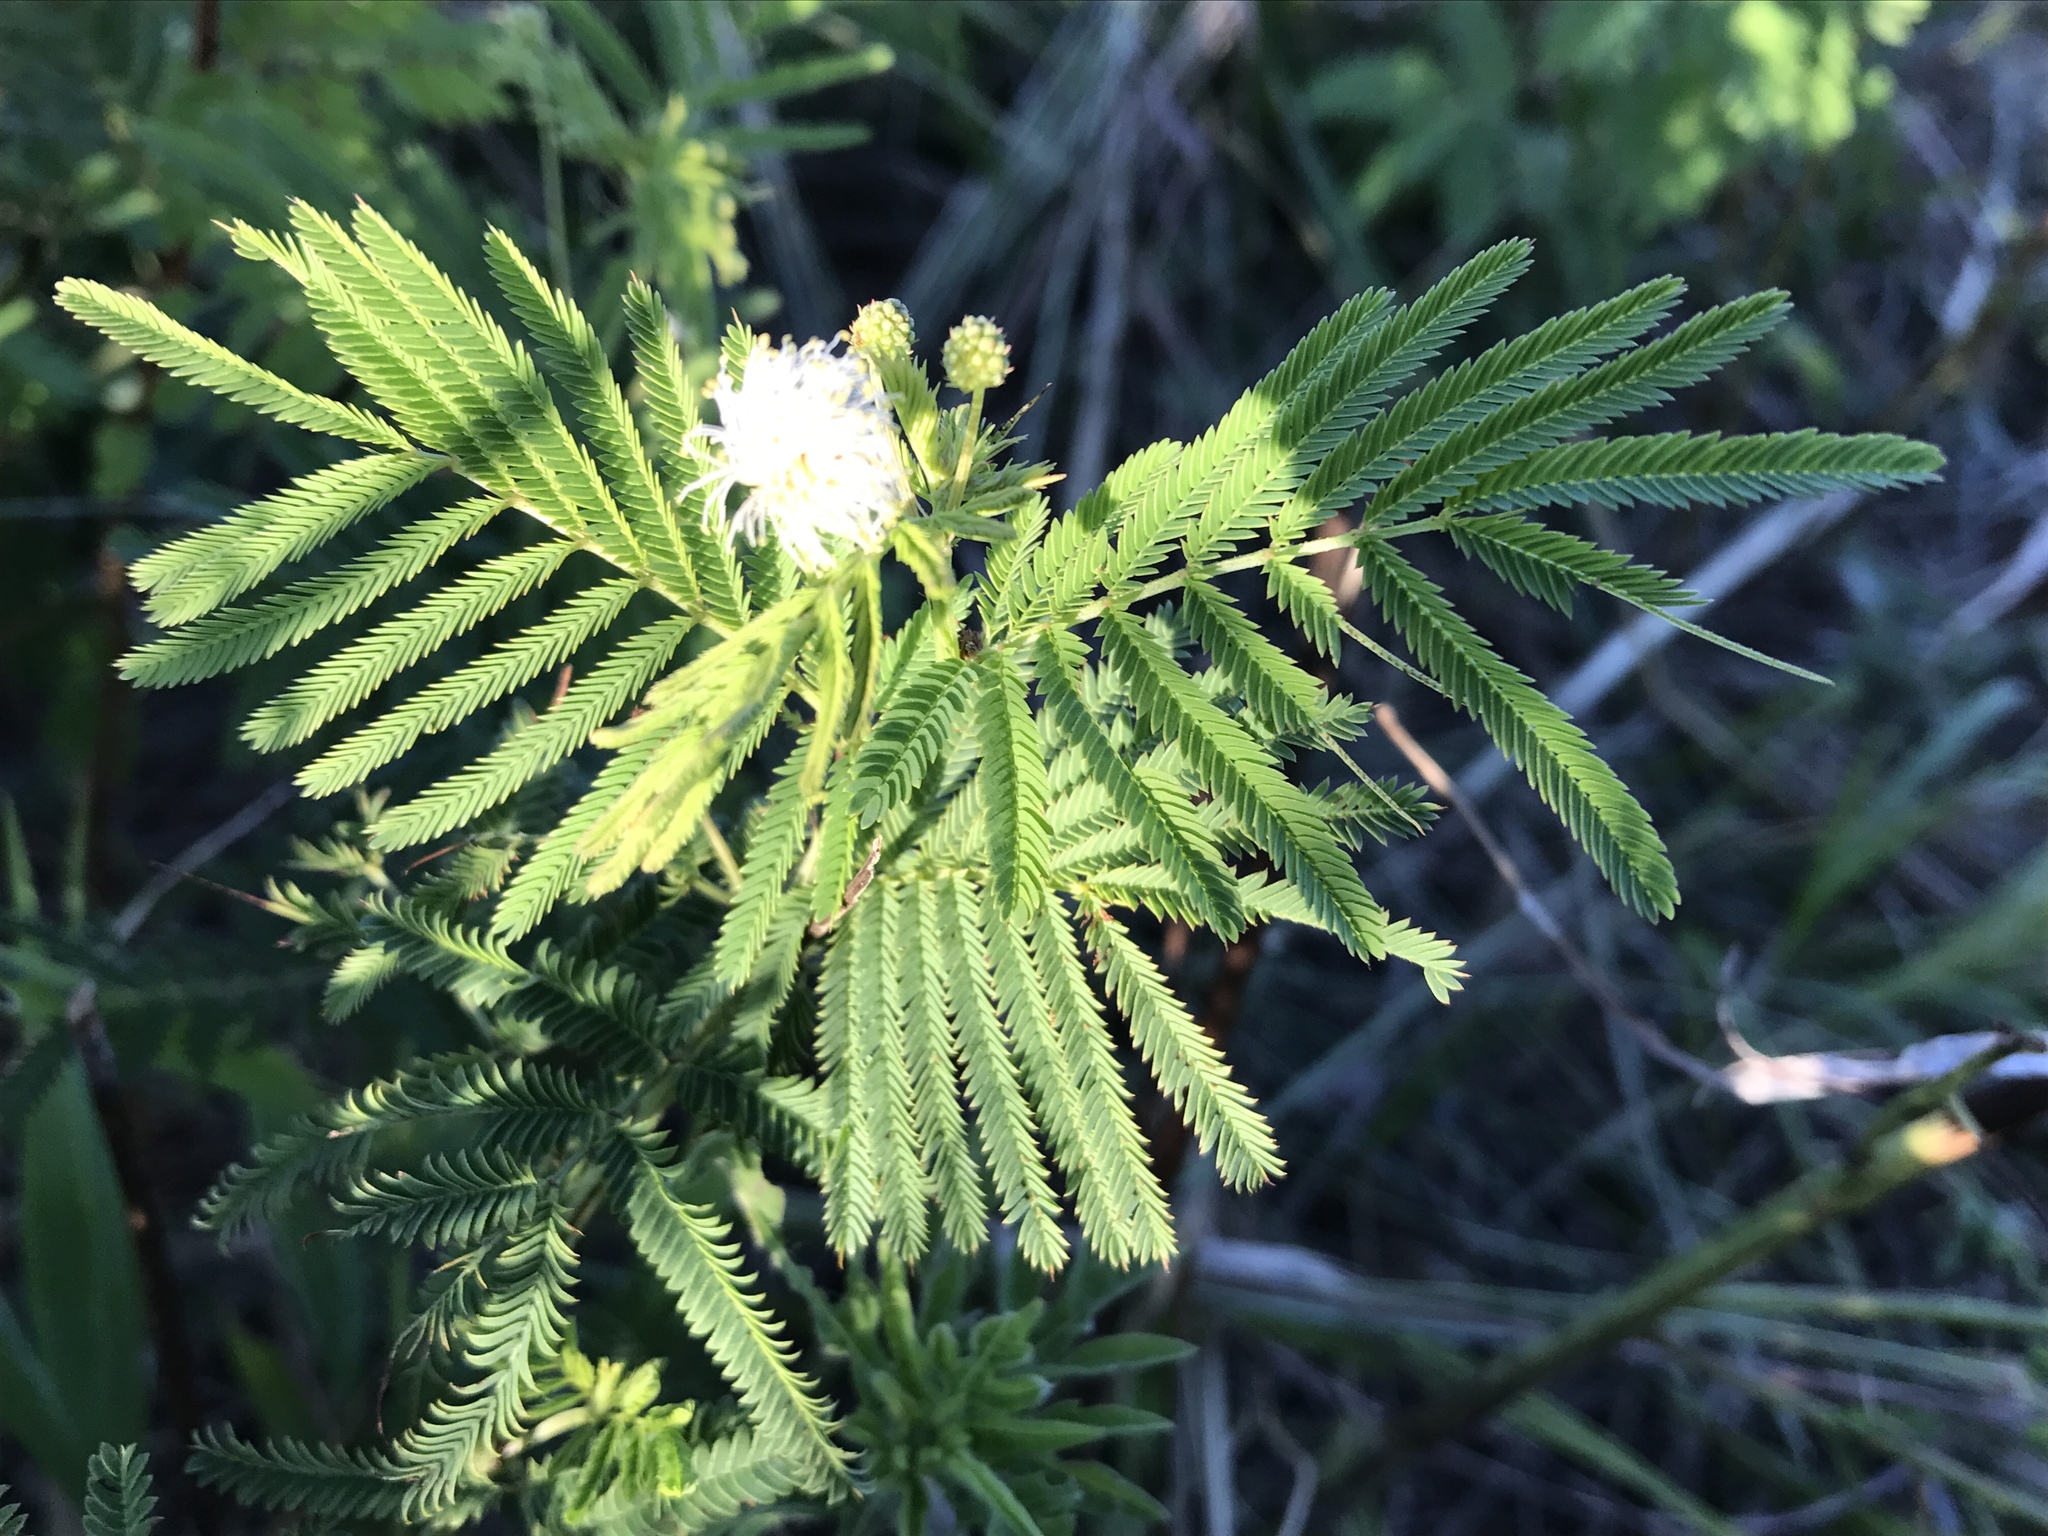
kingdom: Plantae
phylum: Tracheophyta
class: Magnoliopsida
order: Fabales
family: Fabaceae
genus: Desmanthus
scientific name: Desmanthus illinoensis
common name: Illinois bundle-flower
